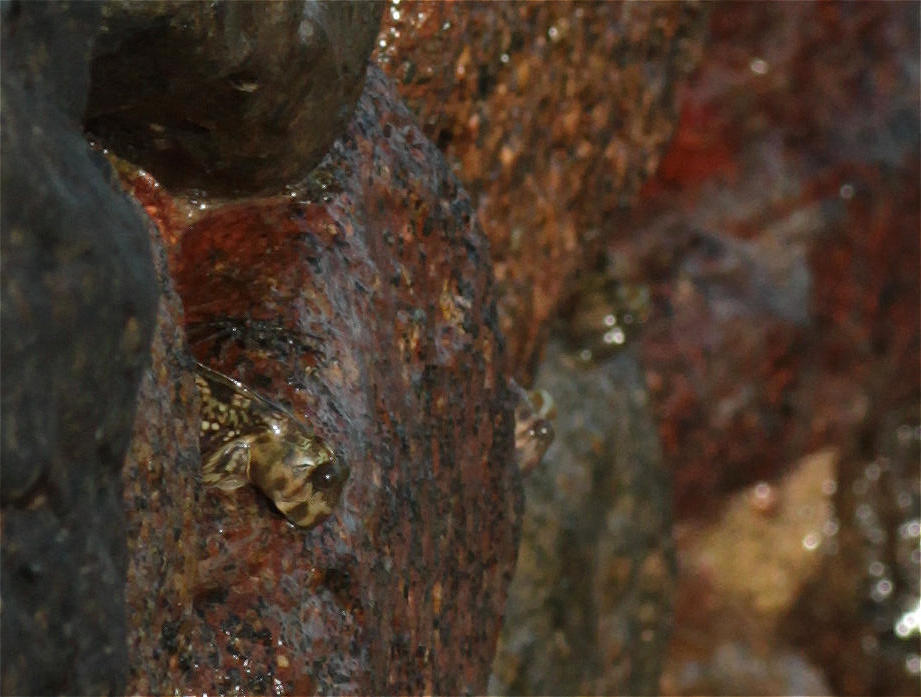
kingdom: Animalia
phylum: Chordata
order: Perciformes
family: Blenniidae
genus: Alticus
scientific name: Alticus magnusi
